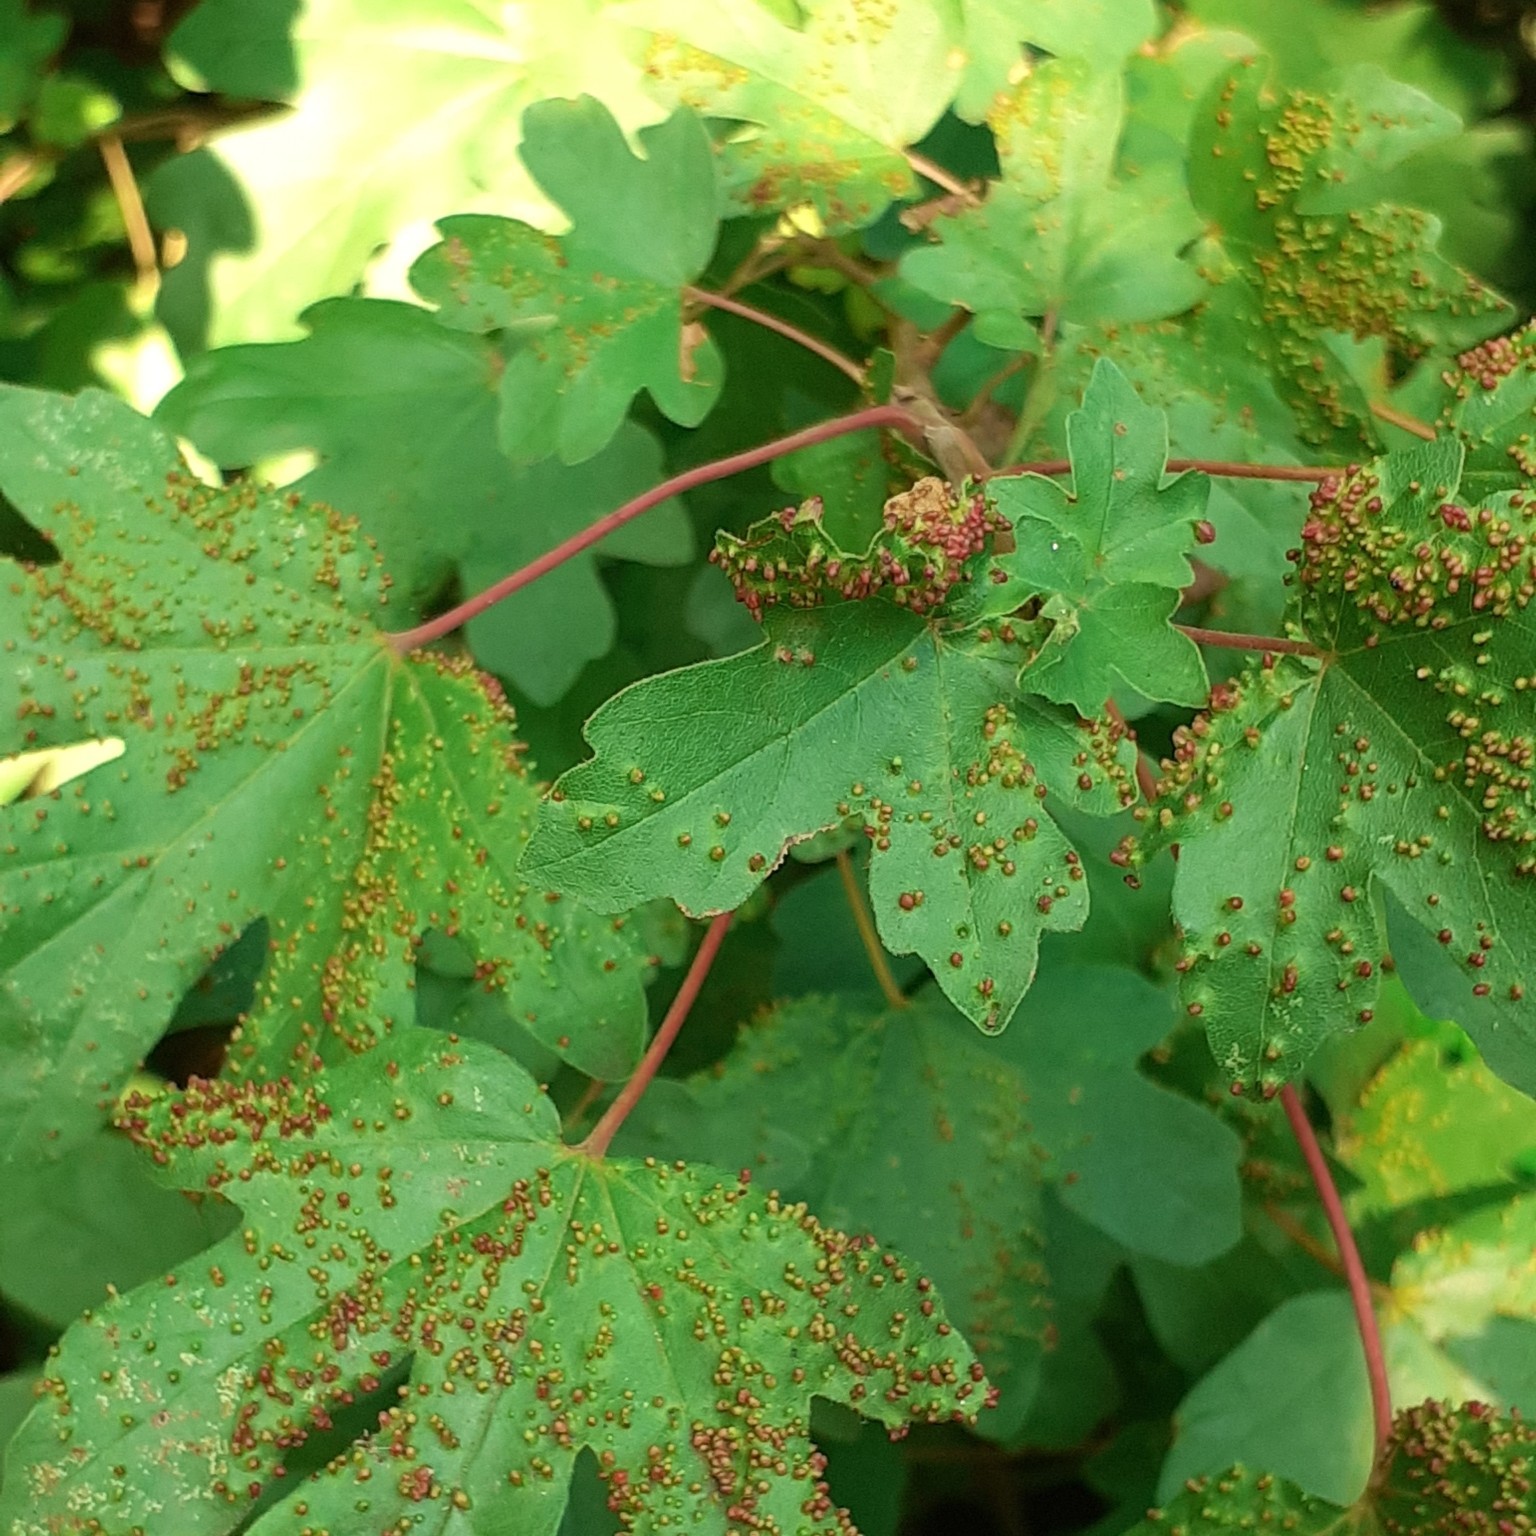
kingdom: Animalia
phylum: Arthropoda
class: Arachnida
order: Trombidiformes
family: Eriophyidae
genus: Aceria
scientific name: Aceria myriadeum
